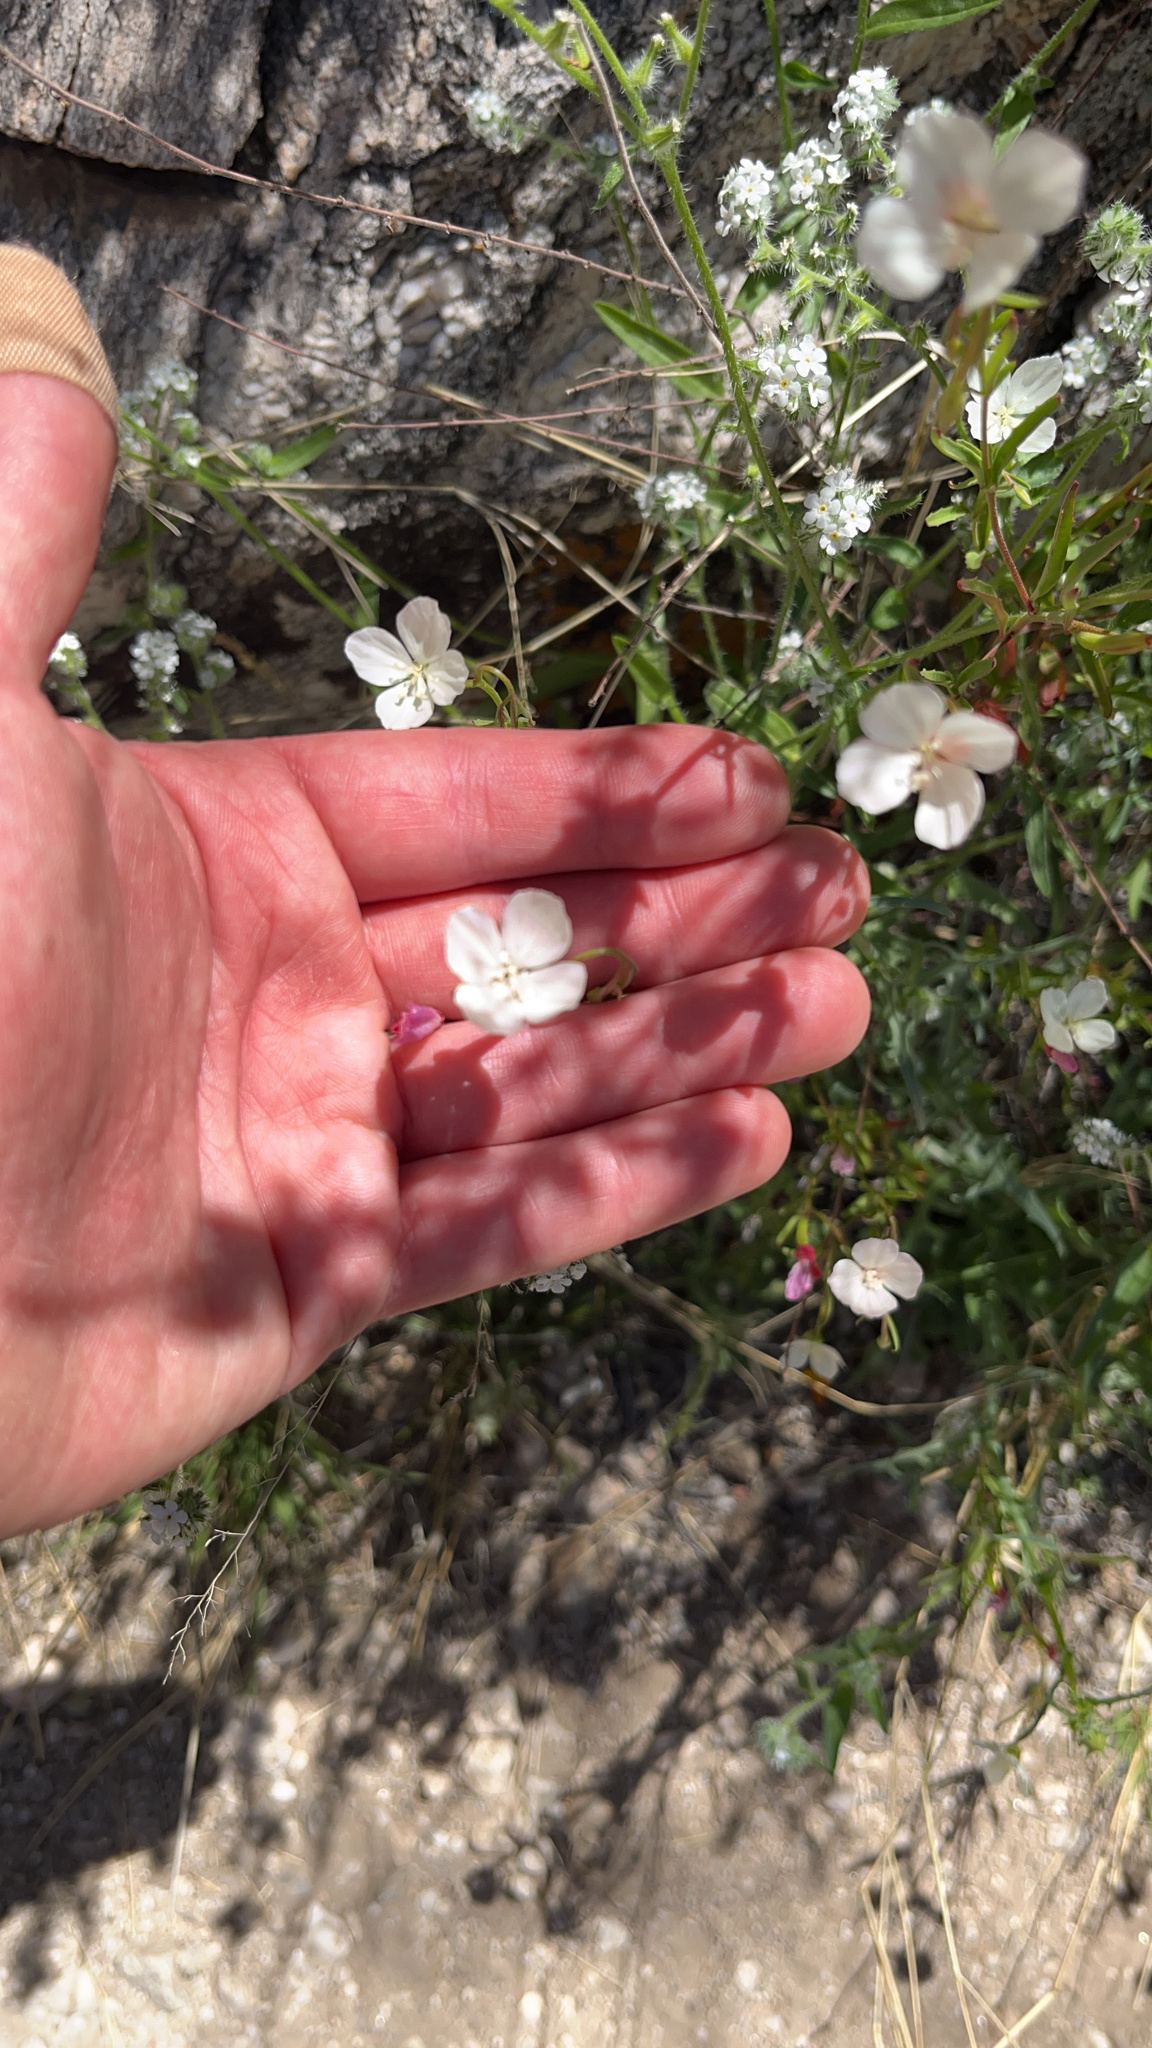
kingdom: Plantae
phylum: Tracheophyta
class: Magnoliopsida
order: Myrtales
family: Onagraceae
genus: Clarkia
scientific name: Clarkia epilobioides
